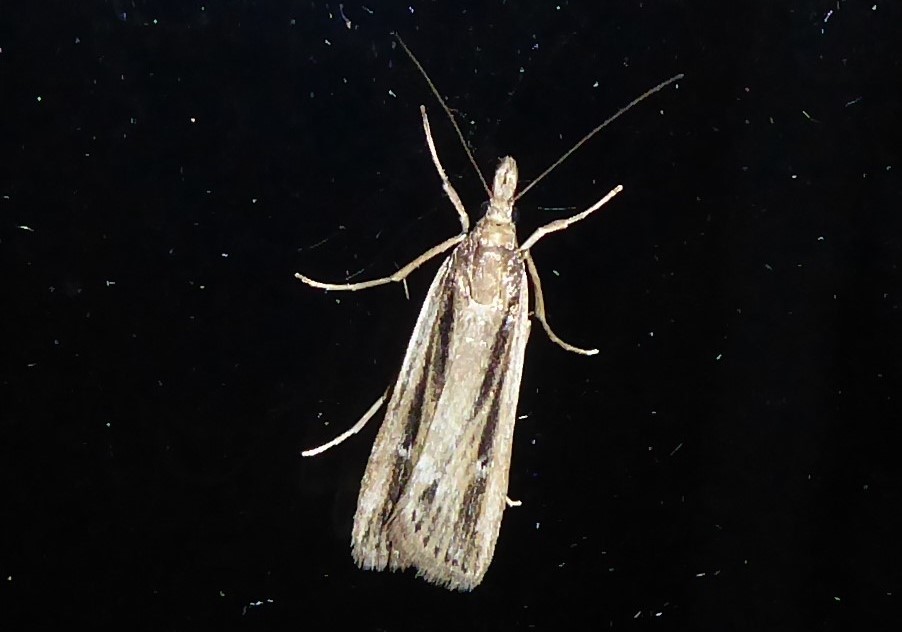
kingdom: Animalia
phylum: Arthropoda
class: Insecta
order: Lepidoptera
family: Crambidae
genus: Eudonia
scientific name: Eudonia sabulosella
